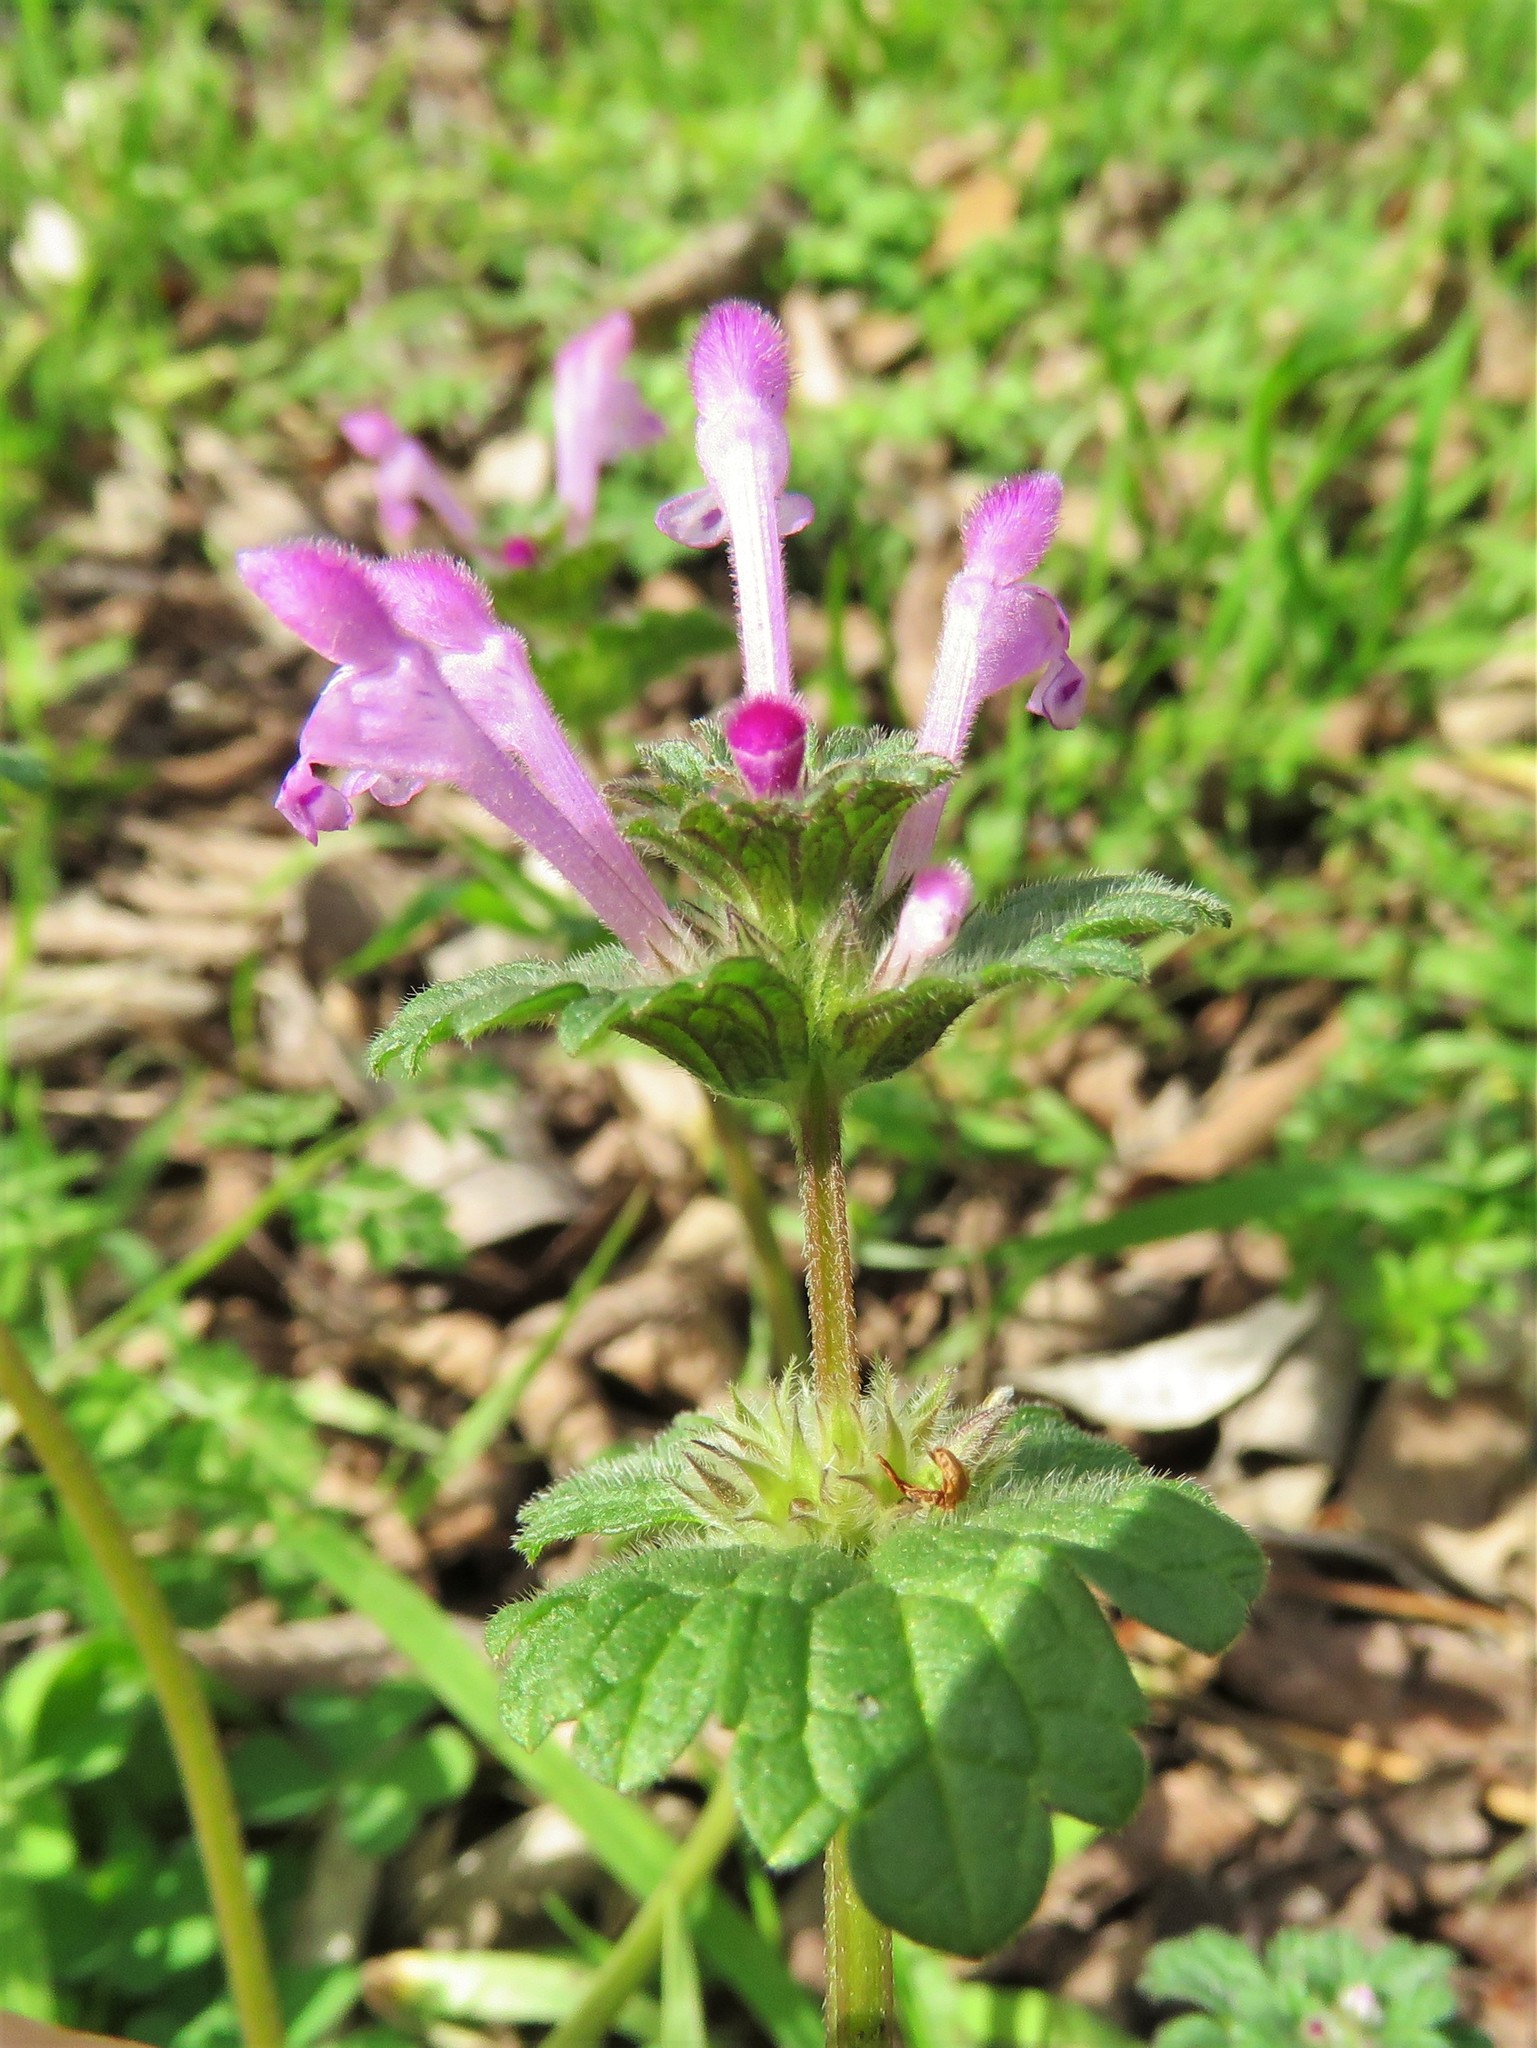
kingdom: Plantae
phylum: Tracheophyta
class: Magnoliopsida
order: Lamiales
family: Lamiaceae
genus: Lamium
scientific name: Lamium amplexicaule
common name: Henbit dead-nettle
